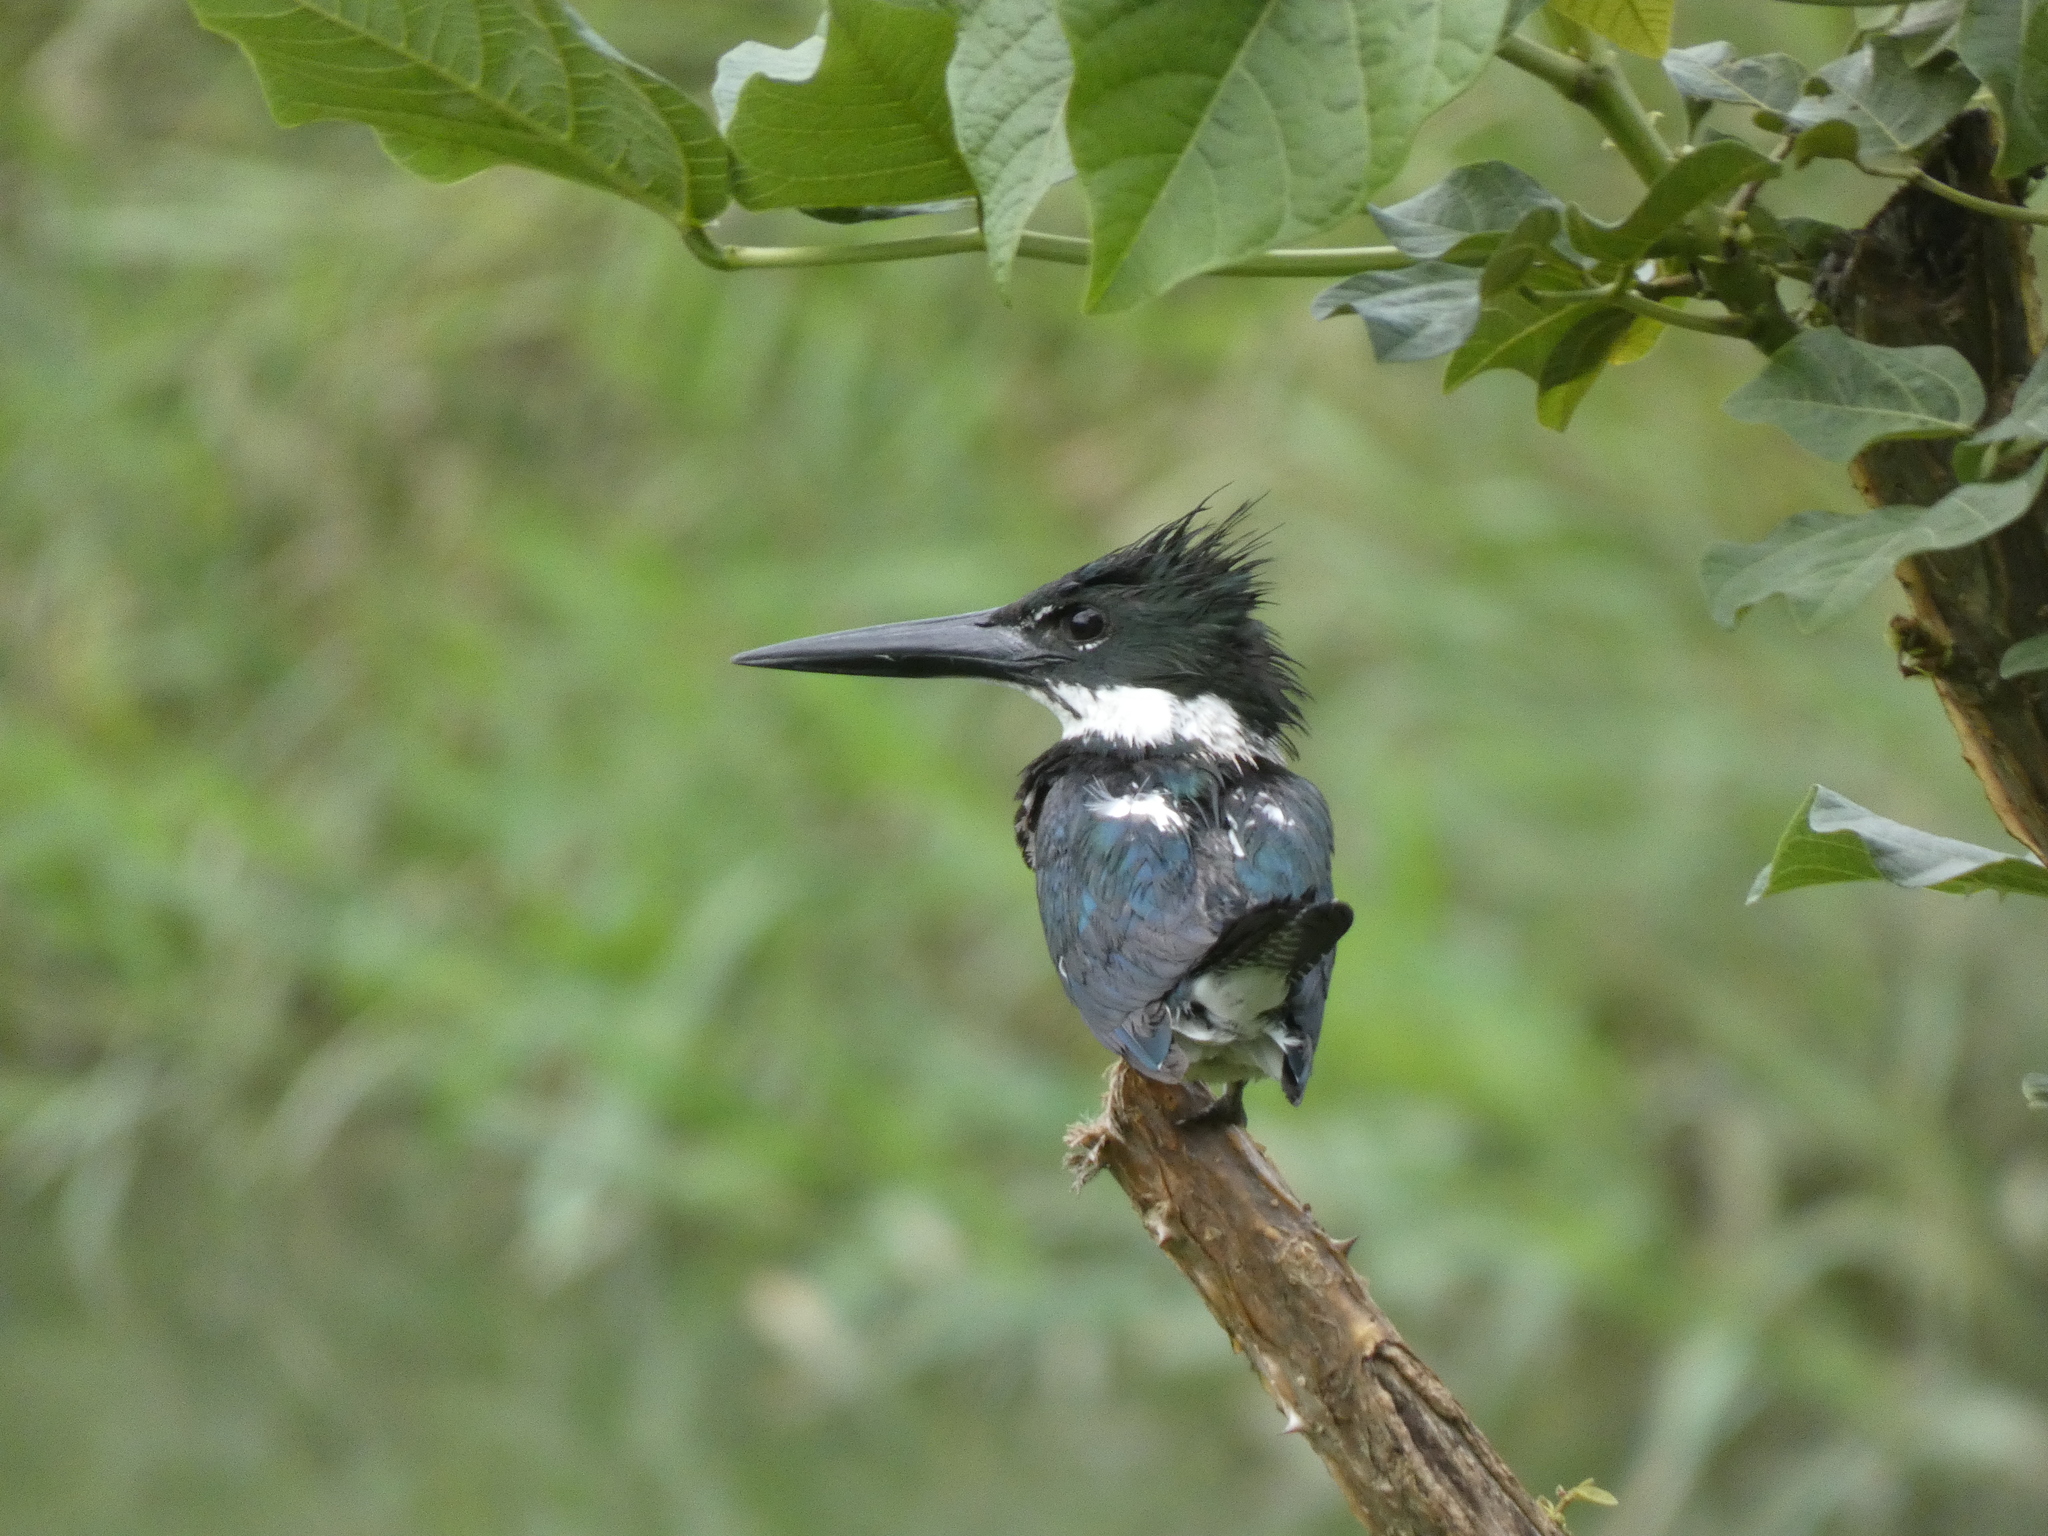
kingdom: Animalia
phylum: Chordata
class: Aves
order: Coraciiformes
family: Alcedinidae
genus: Chloroceryle
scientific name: Chloroceryle amazona
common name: Amazon kingfisher
